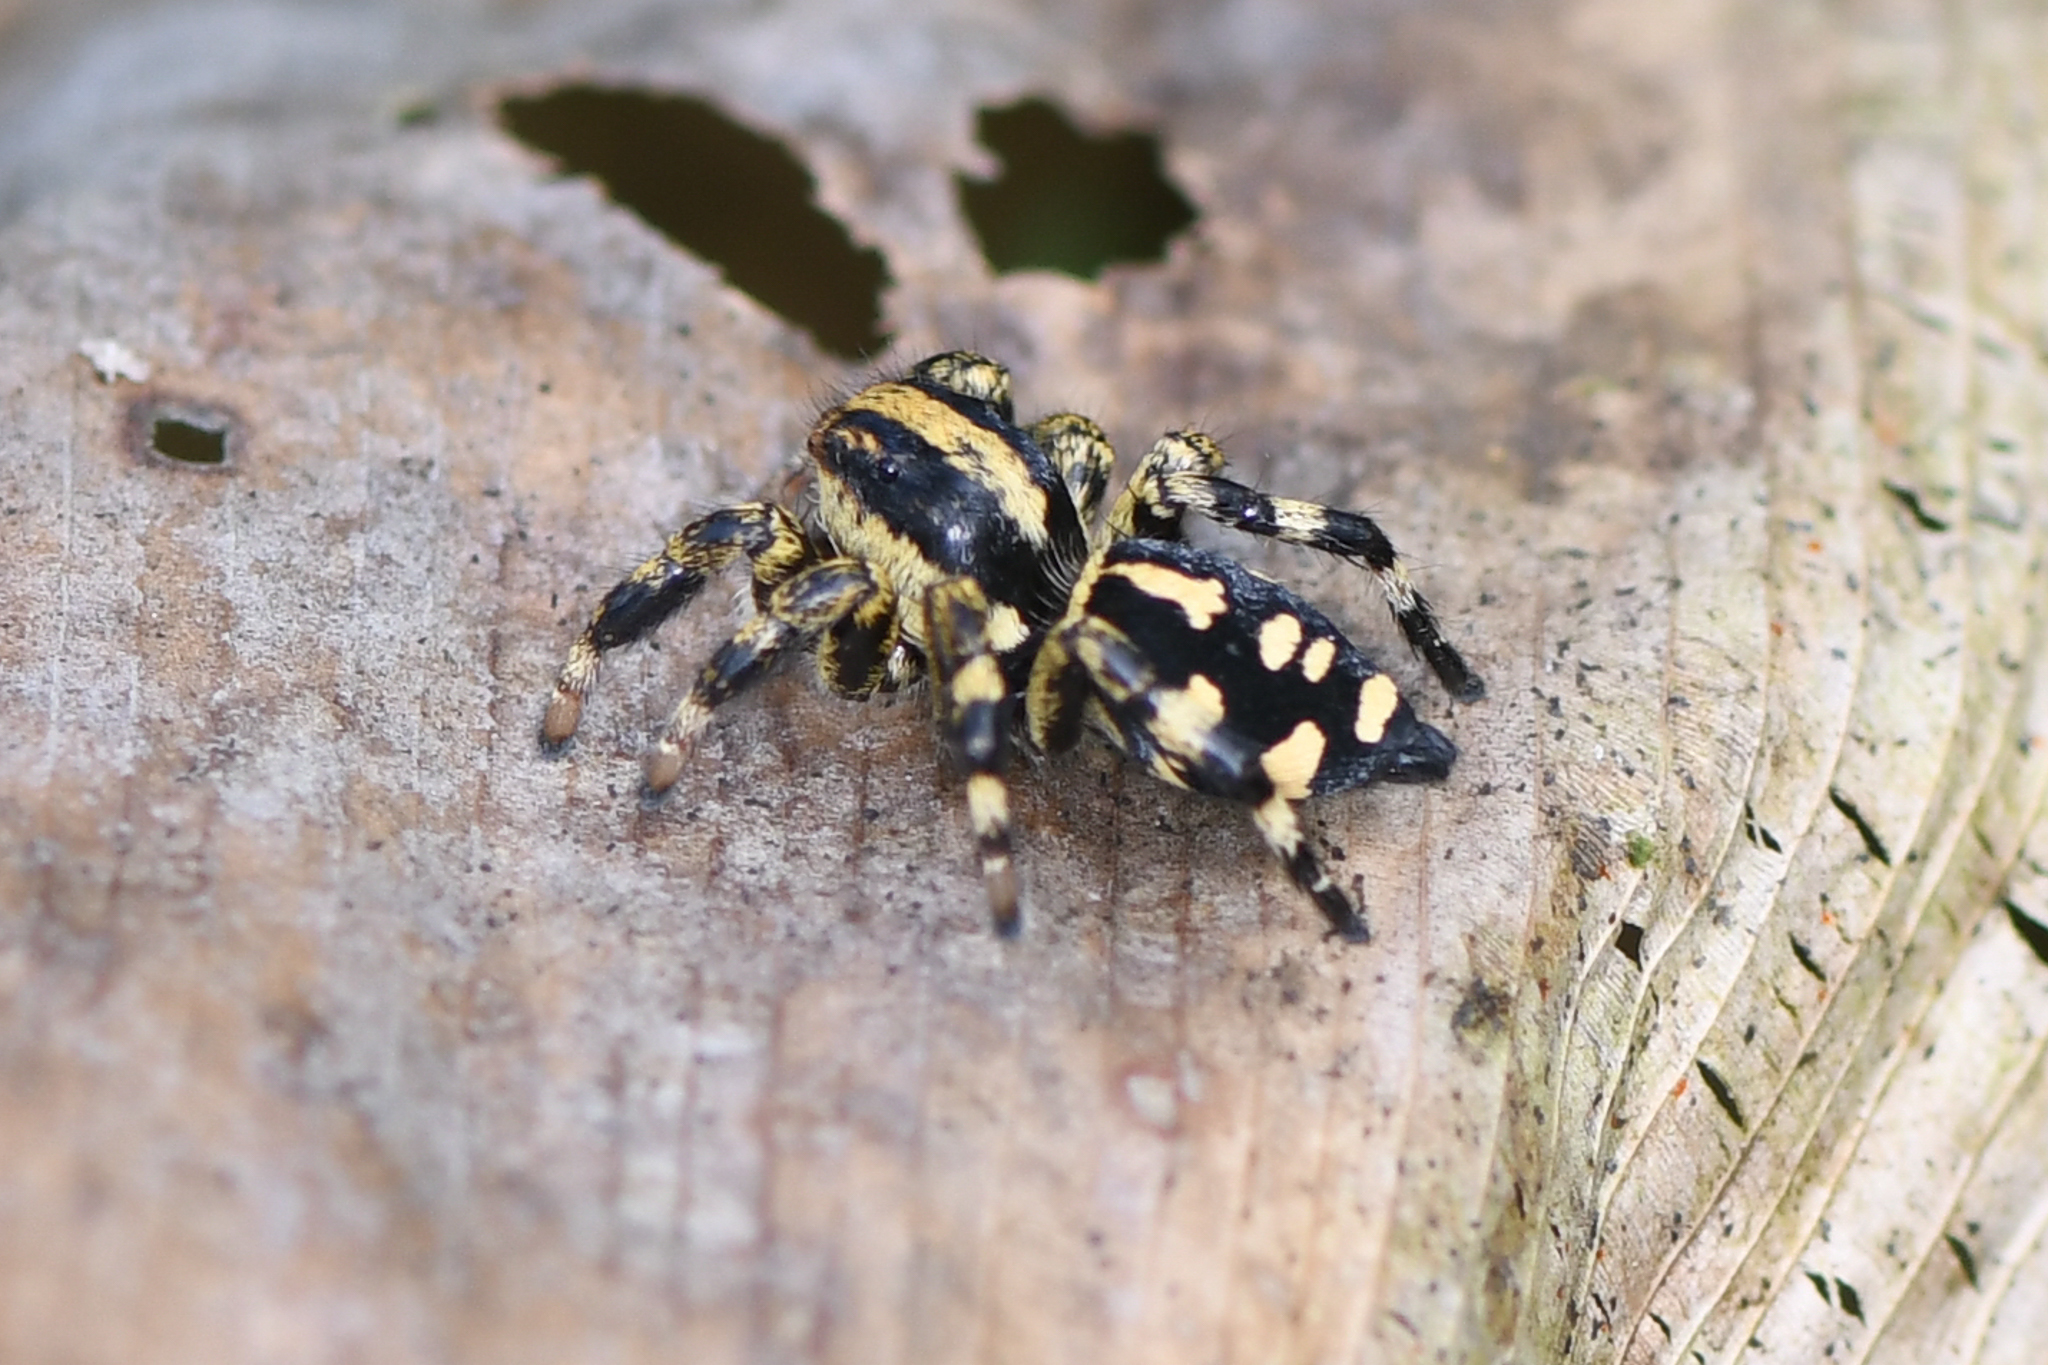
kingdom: Animalia
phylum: Arthropoda
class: Arachnida
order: Araneae
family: Salticidae
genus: Phiale
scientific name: Phiale guttata
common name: Jumping spiders
